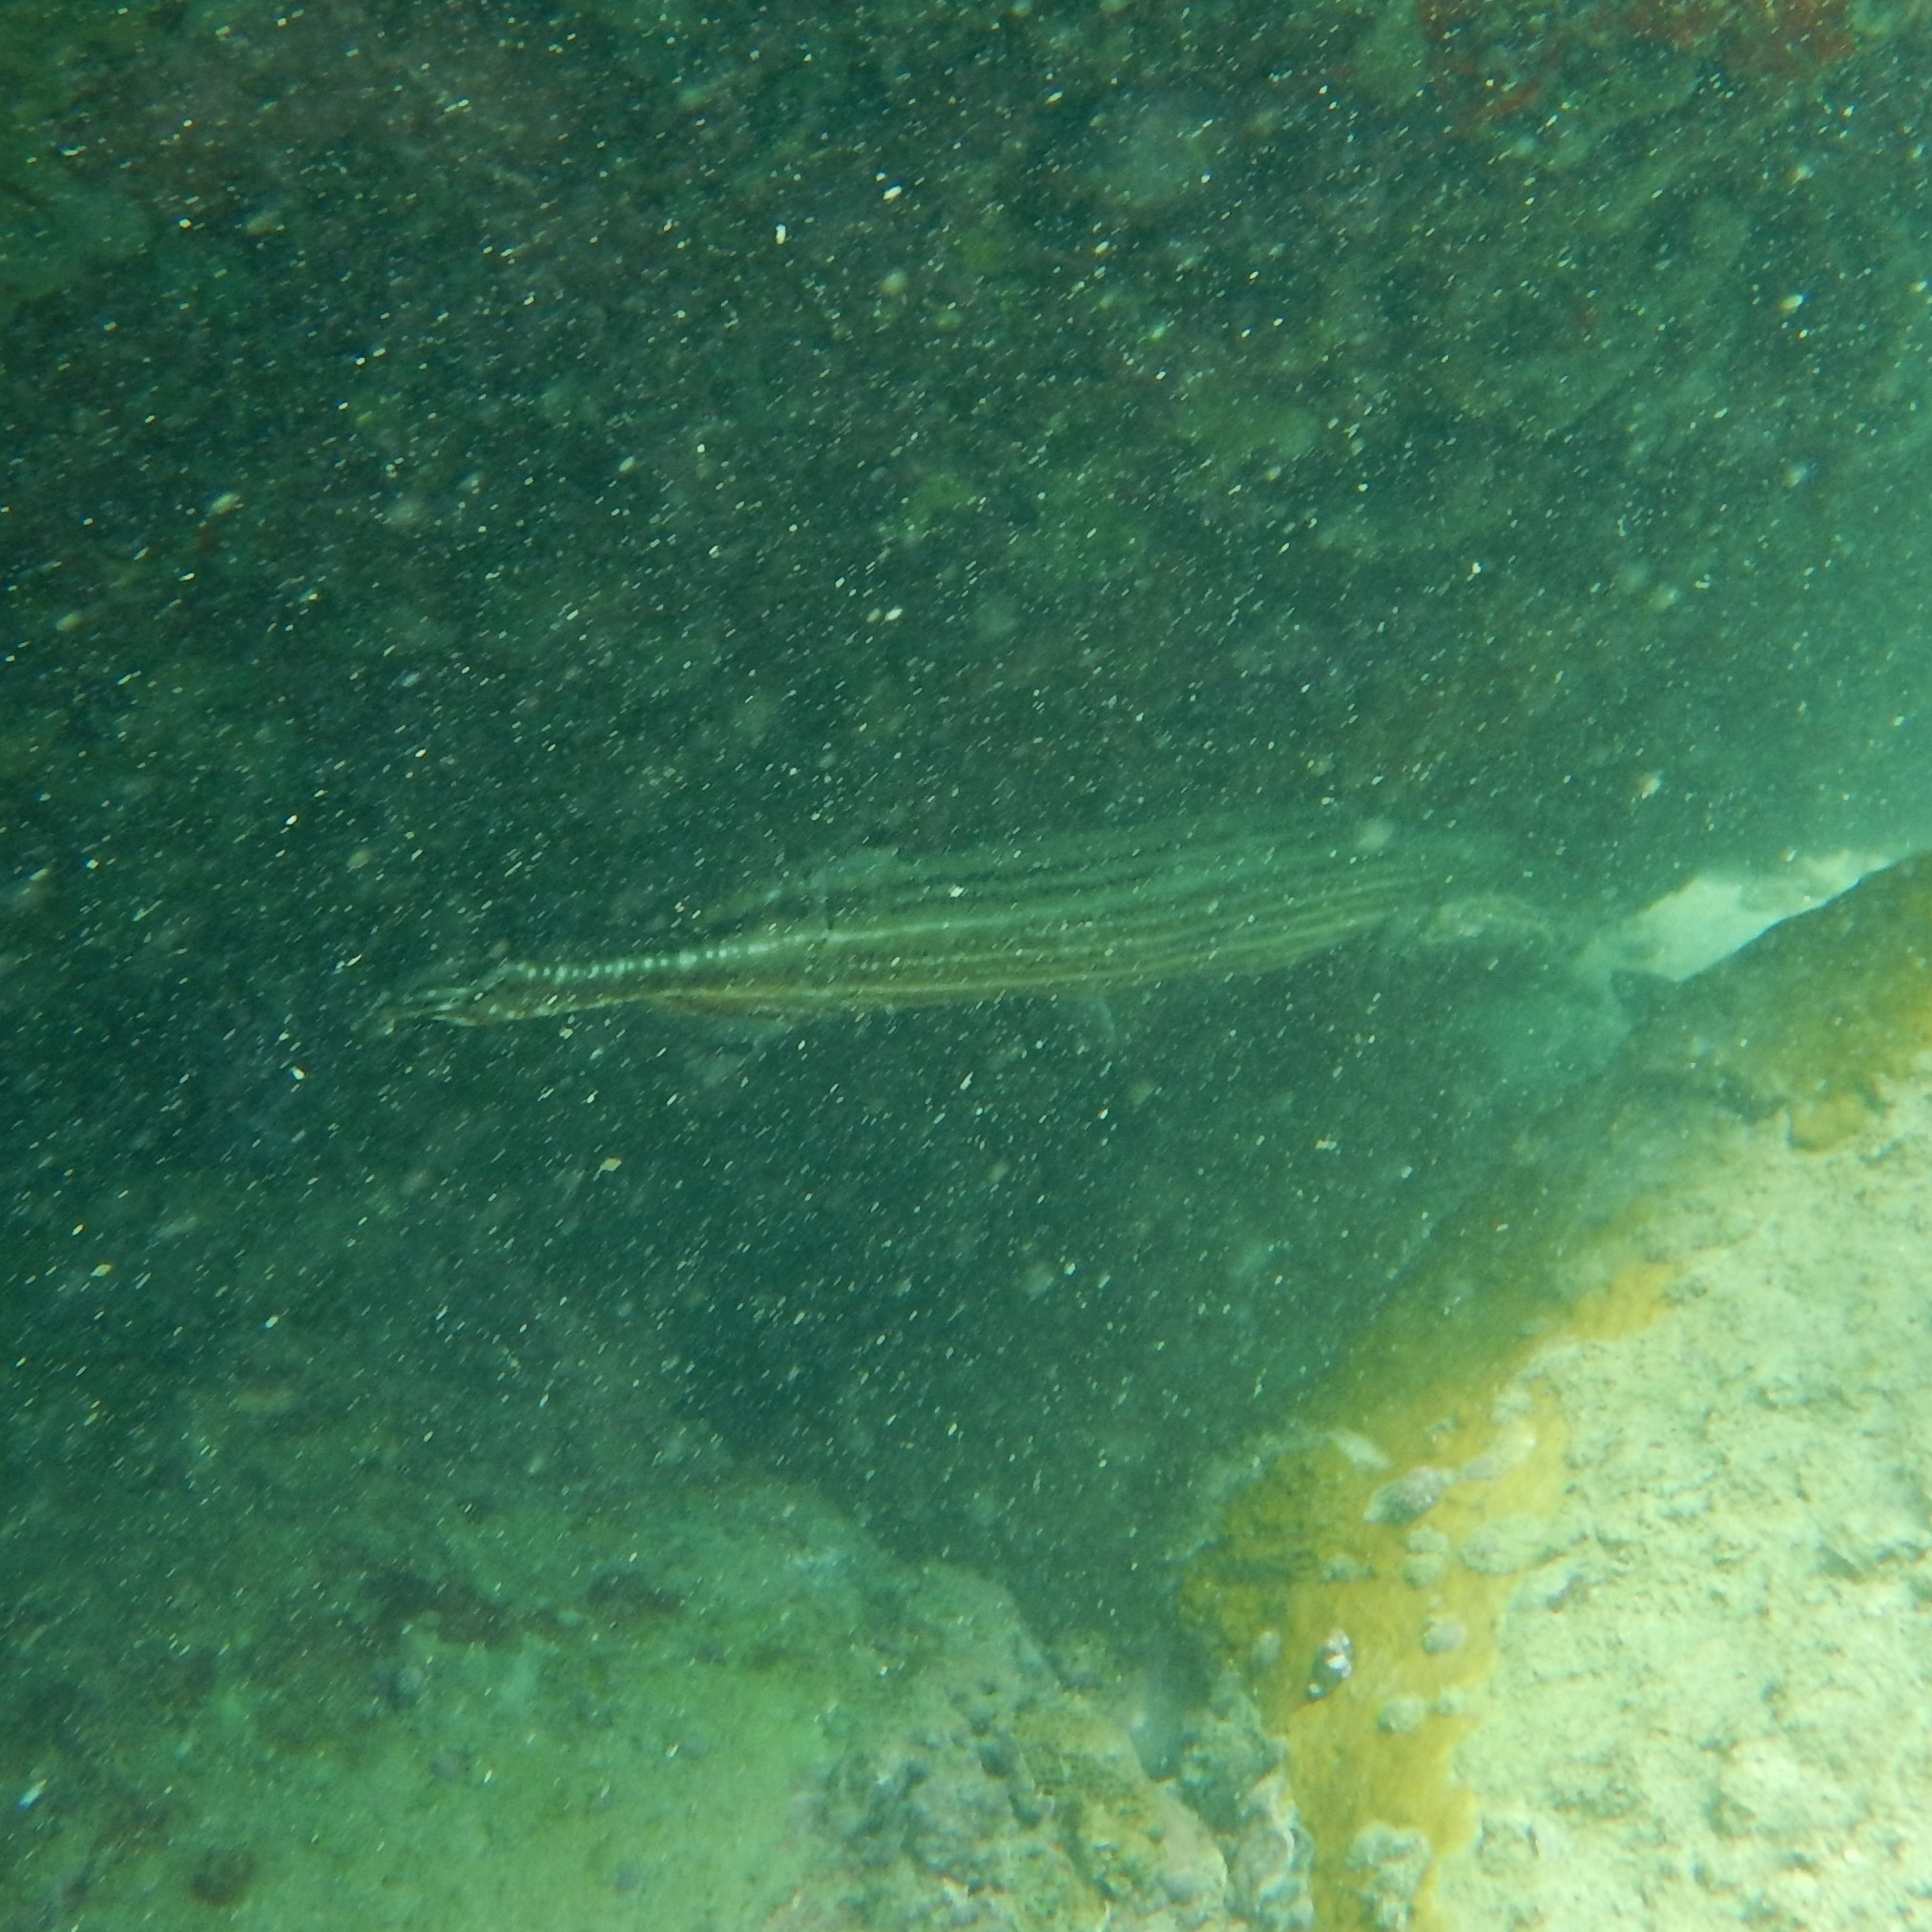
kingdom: Animalia
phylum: Chordata
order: Syngnathiformes
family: Aulostomidae
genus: Aulostomus
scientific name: Aulostomus maculatus
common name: West atlantic trumpetfish
